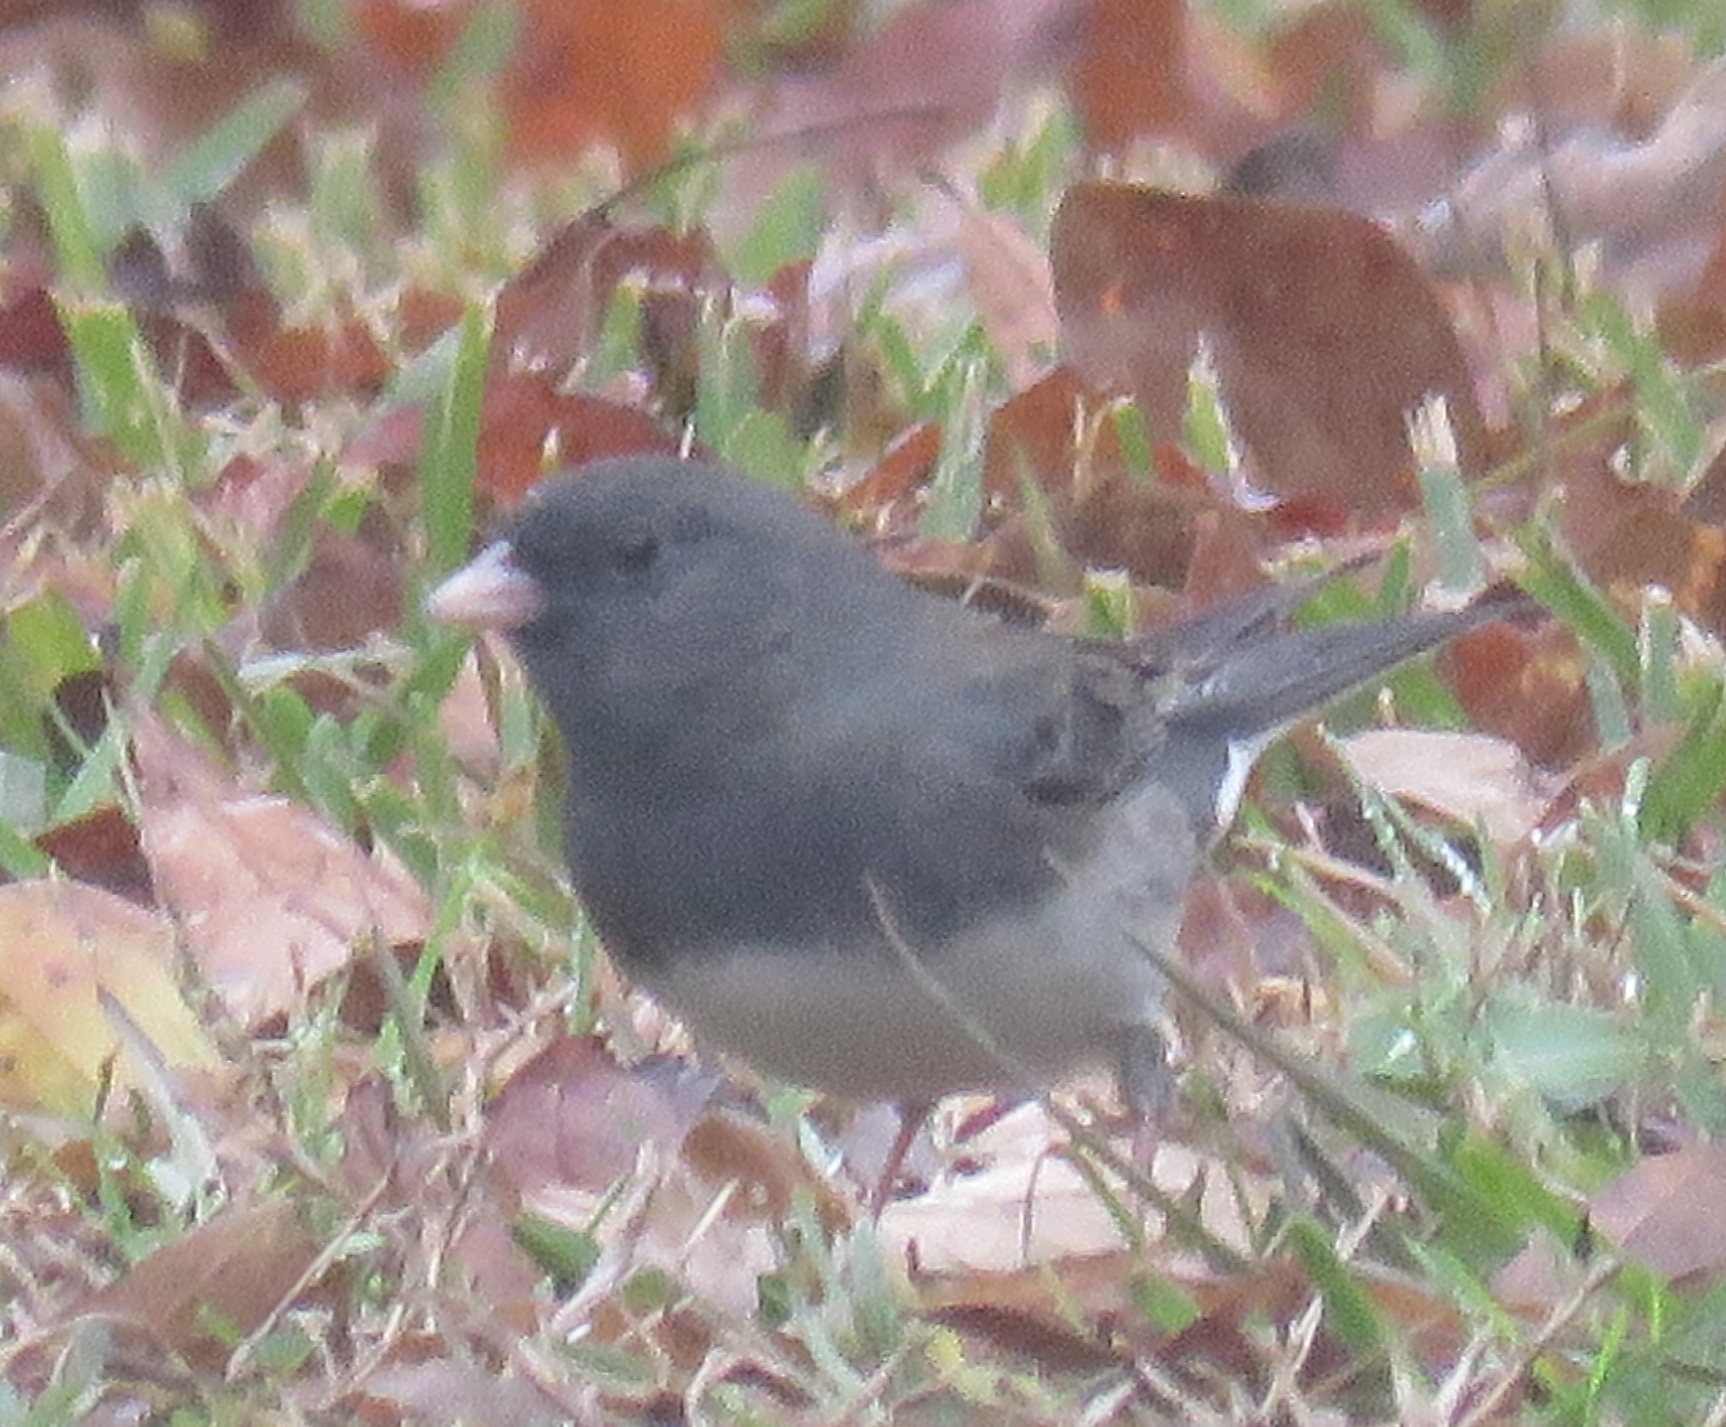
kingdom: Animalia
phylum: Chordata
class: Aves
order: Passeriformes
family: Passerellidae
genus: Junco
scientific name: Junco hyemalis
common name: Dark-eyed junco
